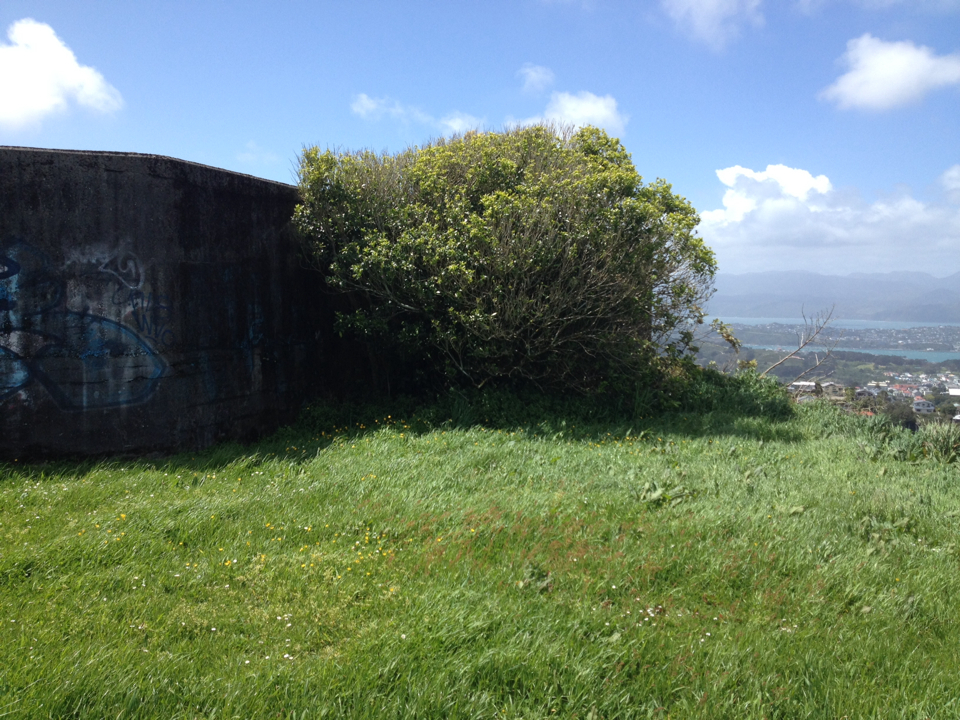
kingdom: Plantae
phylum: Tracheophyta
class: Magnoliopsida
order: Malpighiales
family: Violaceae
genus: Melicytus
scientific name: Melicytus ramiflorus
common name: Mahoe
